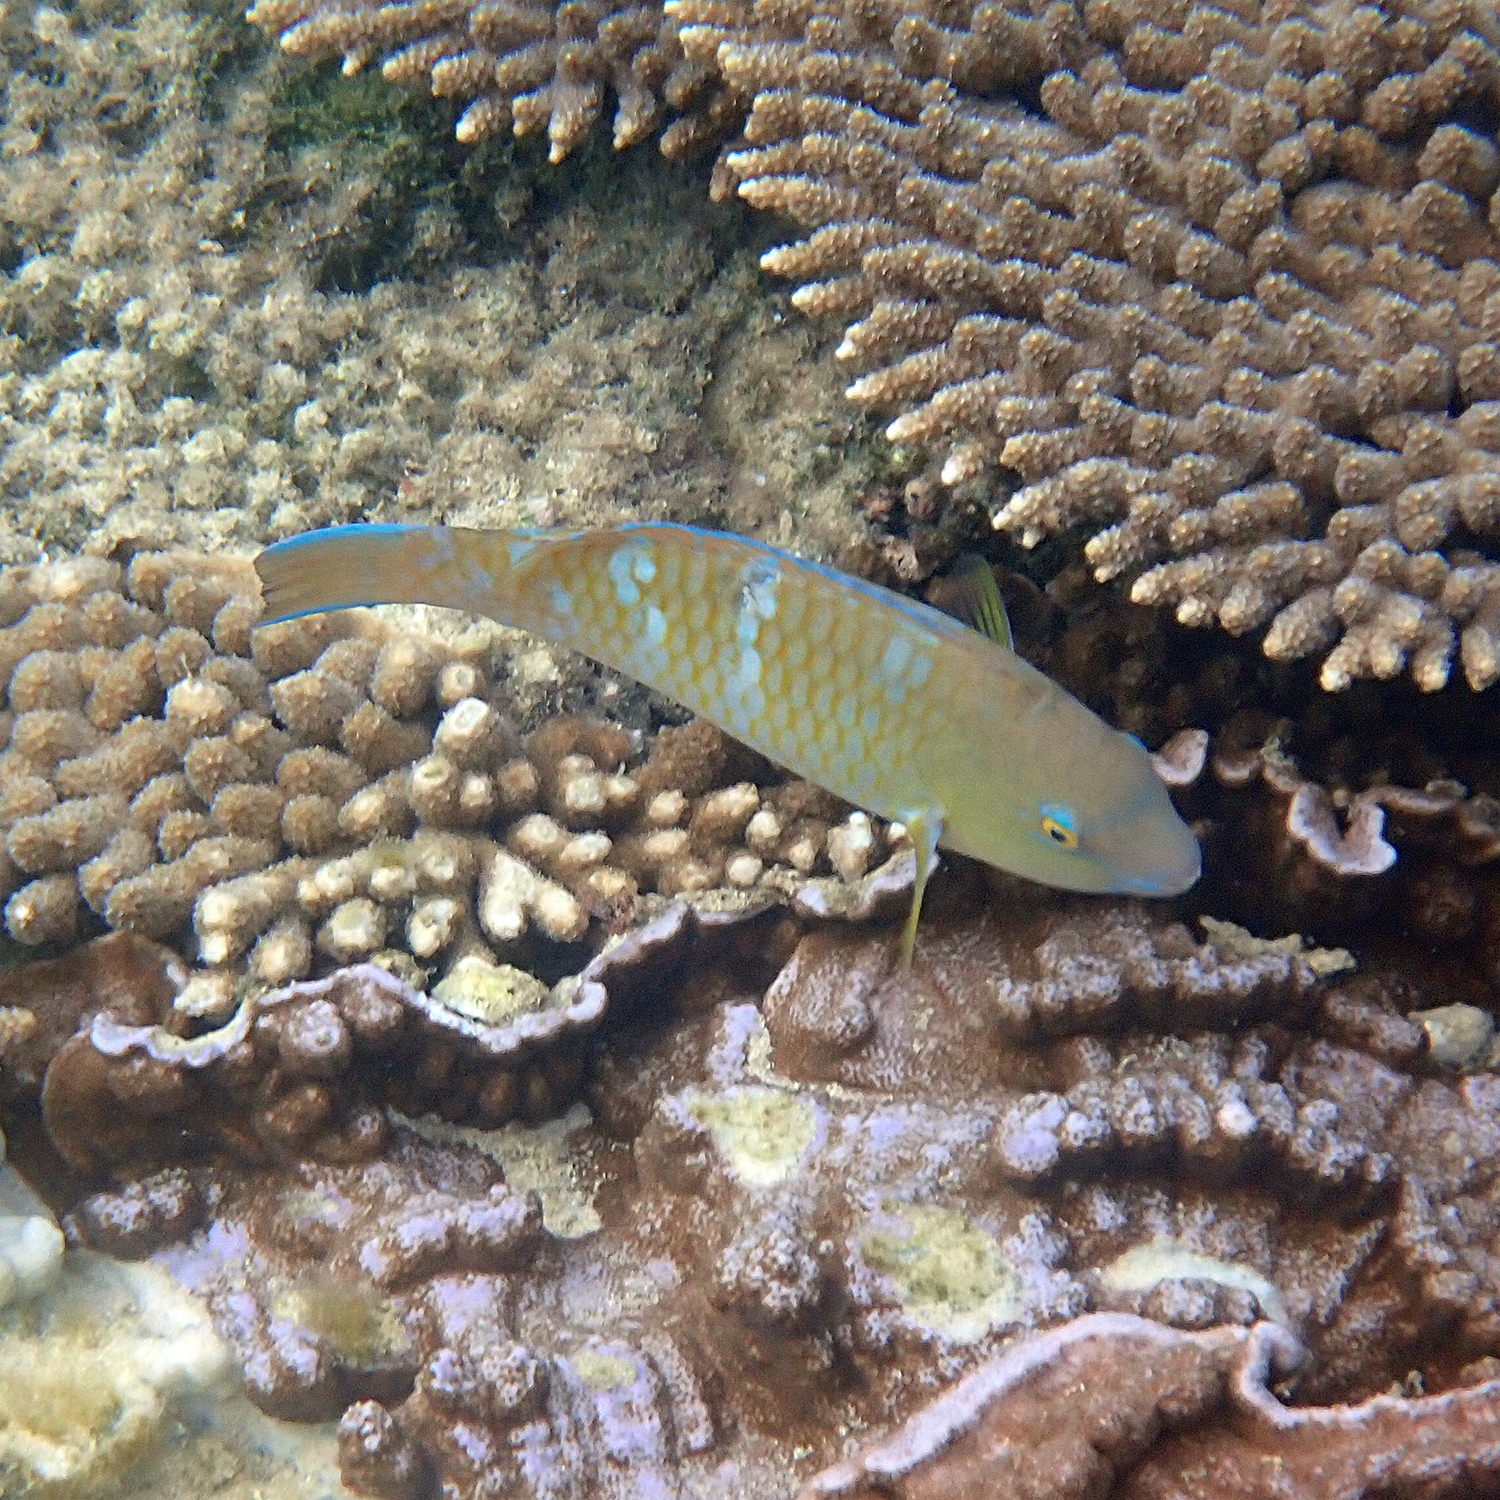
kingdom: Animalia
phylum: Chordata
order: Perciformes
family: Scaridae
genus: Scarus
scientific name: Scarus ghobban
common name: Blue-barred parrotfish
